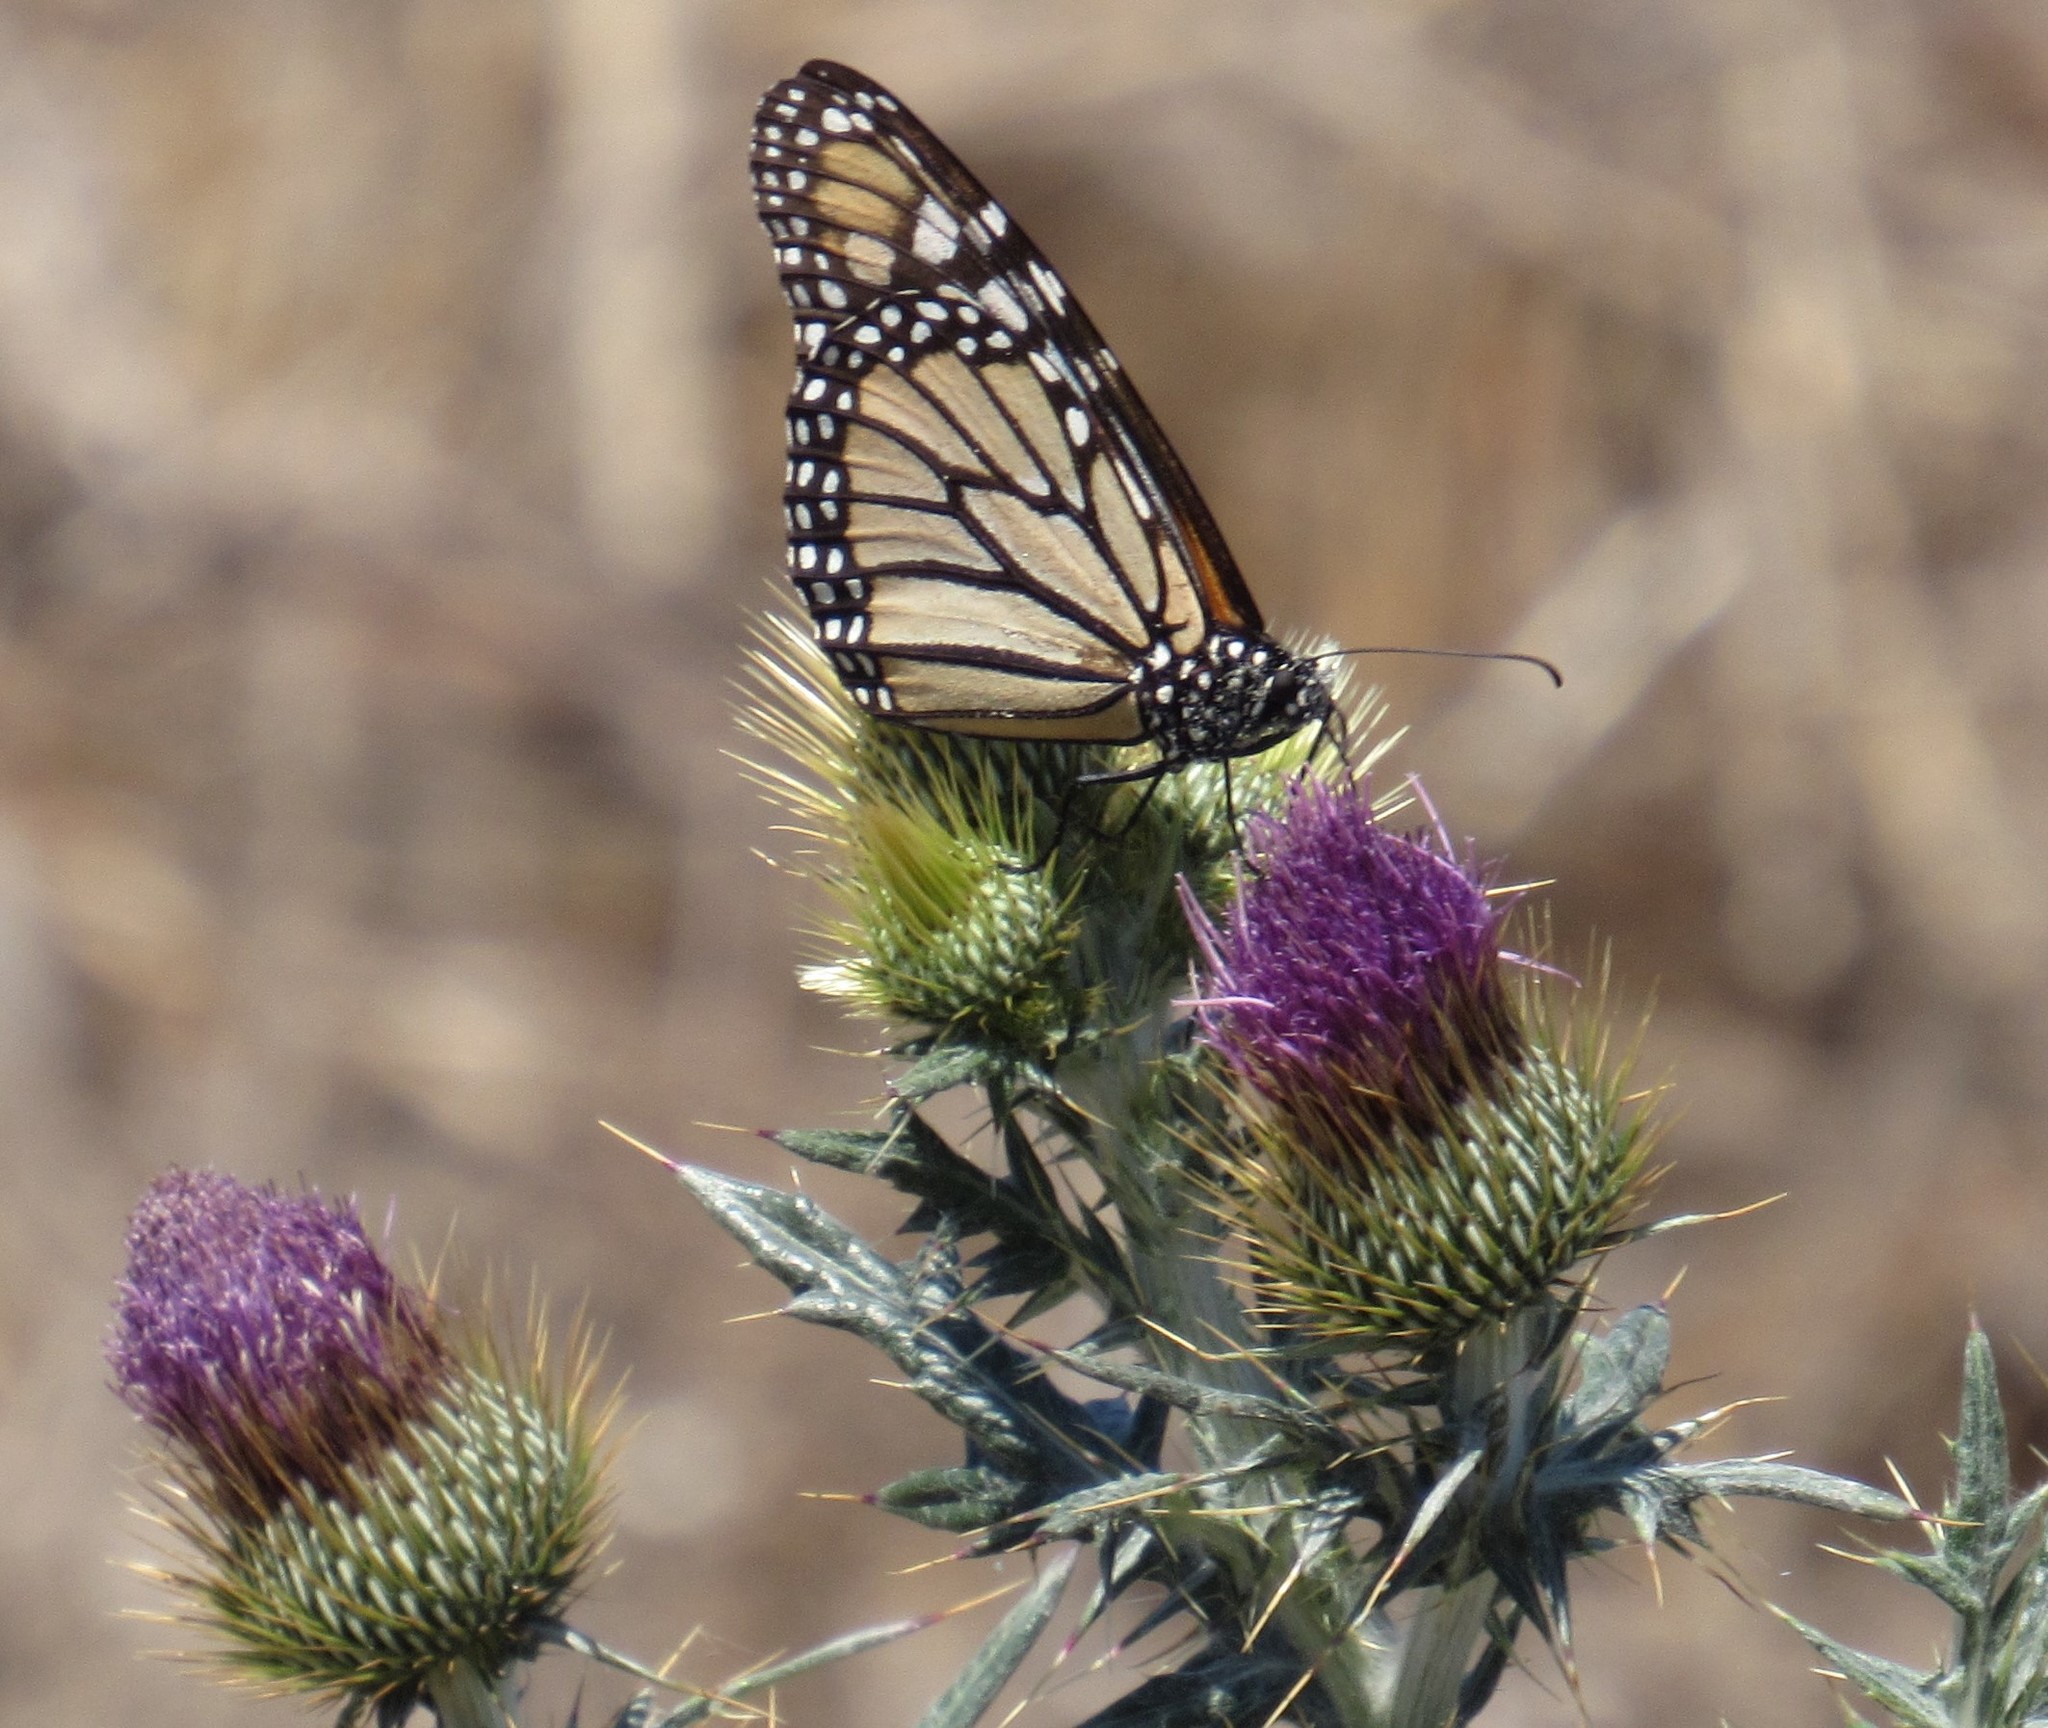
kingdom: Plantae
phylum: Tracheophyta
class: Magnoliopsida
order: Asterales
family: Asteraceae
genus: Cirsium
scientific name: Cirsium rhaphilepis
